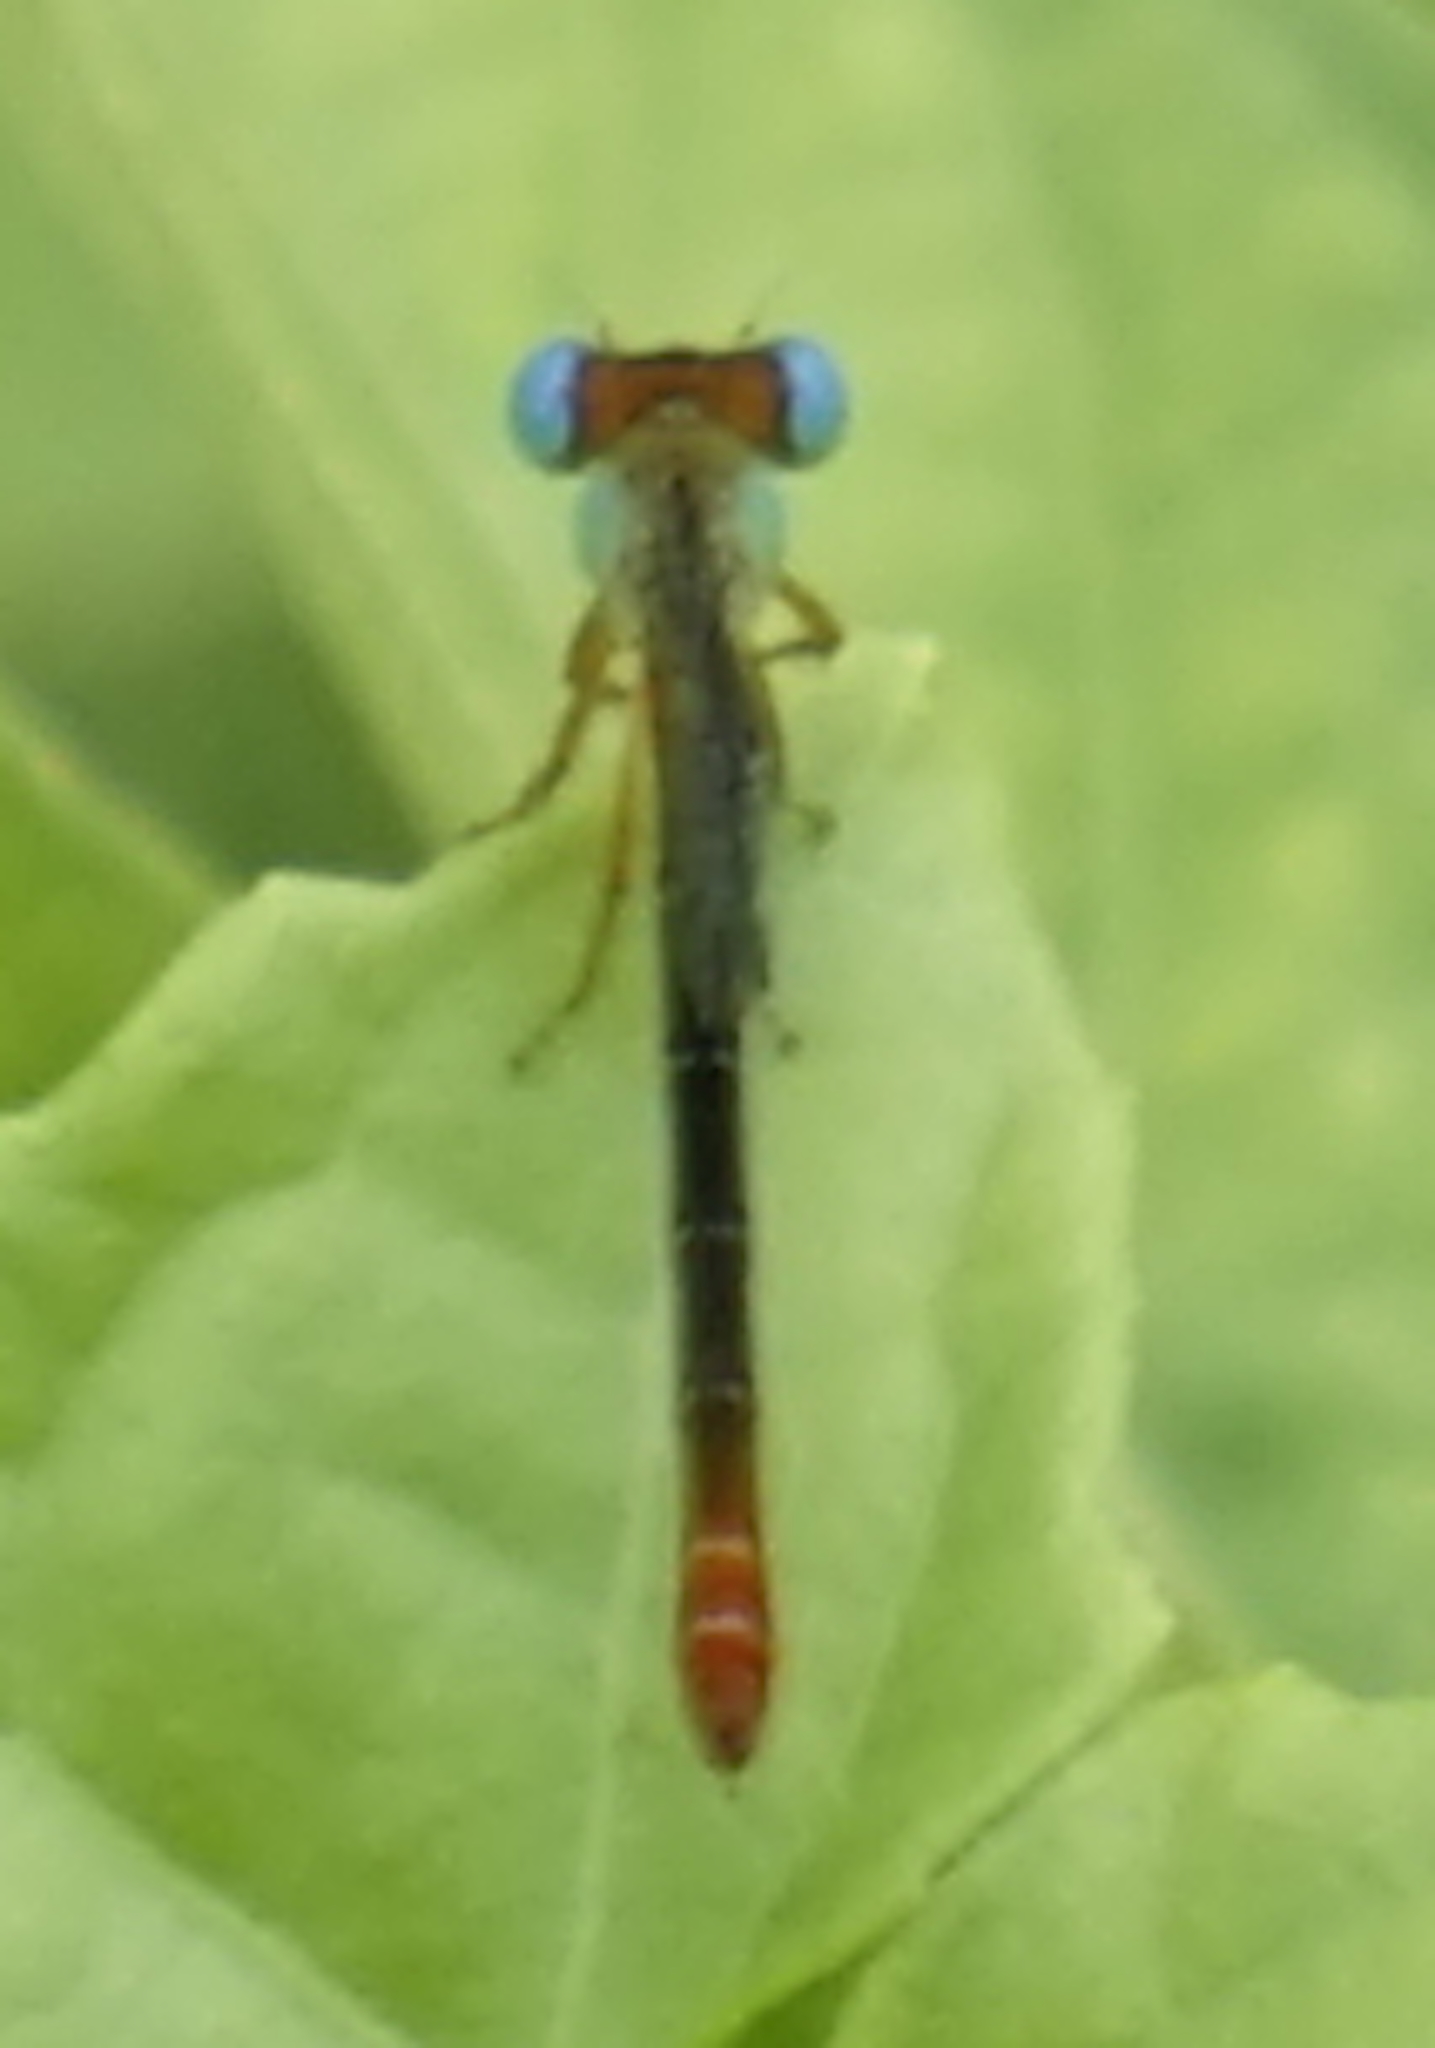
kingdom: Animalia
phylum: Arthropoda
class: Insecta
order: Odonata
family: Coenagrionidae
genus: Ceriagrion
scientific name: Ceriagrion cerinorubellum
